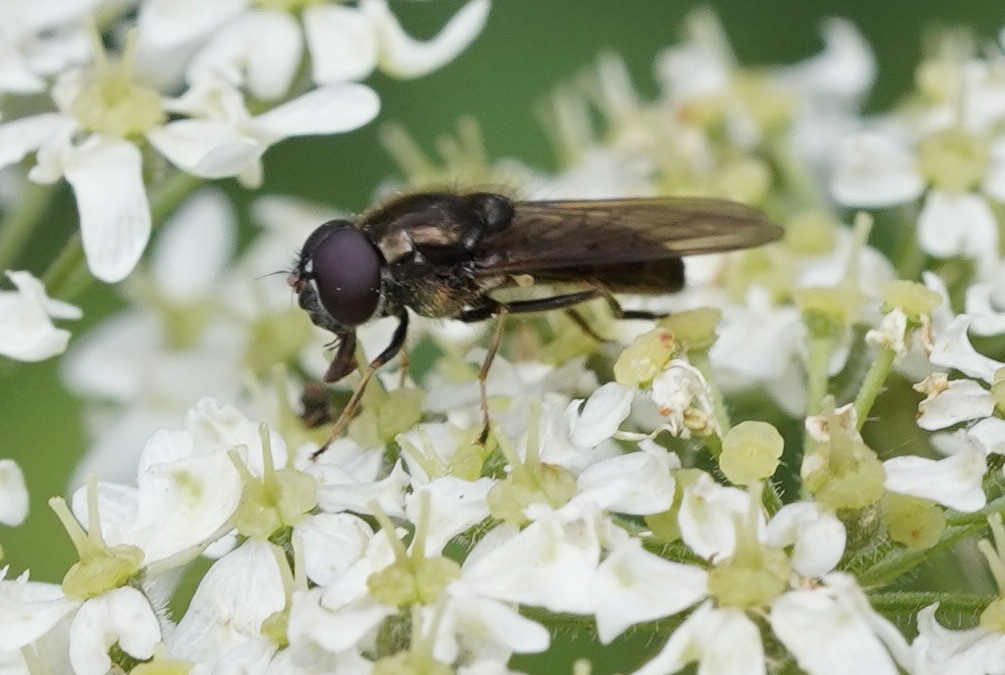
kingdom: Animalia
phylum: Arthropoda
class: Insecta
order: Diptera
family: Syrphidae
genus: Cheilosia
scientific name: Cheilosia
